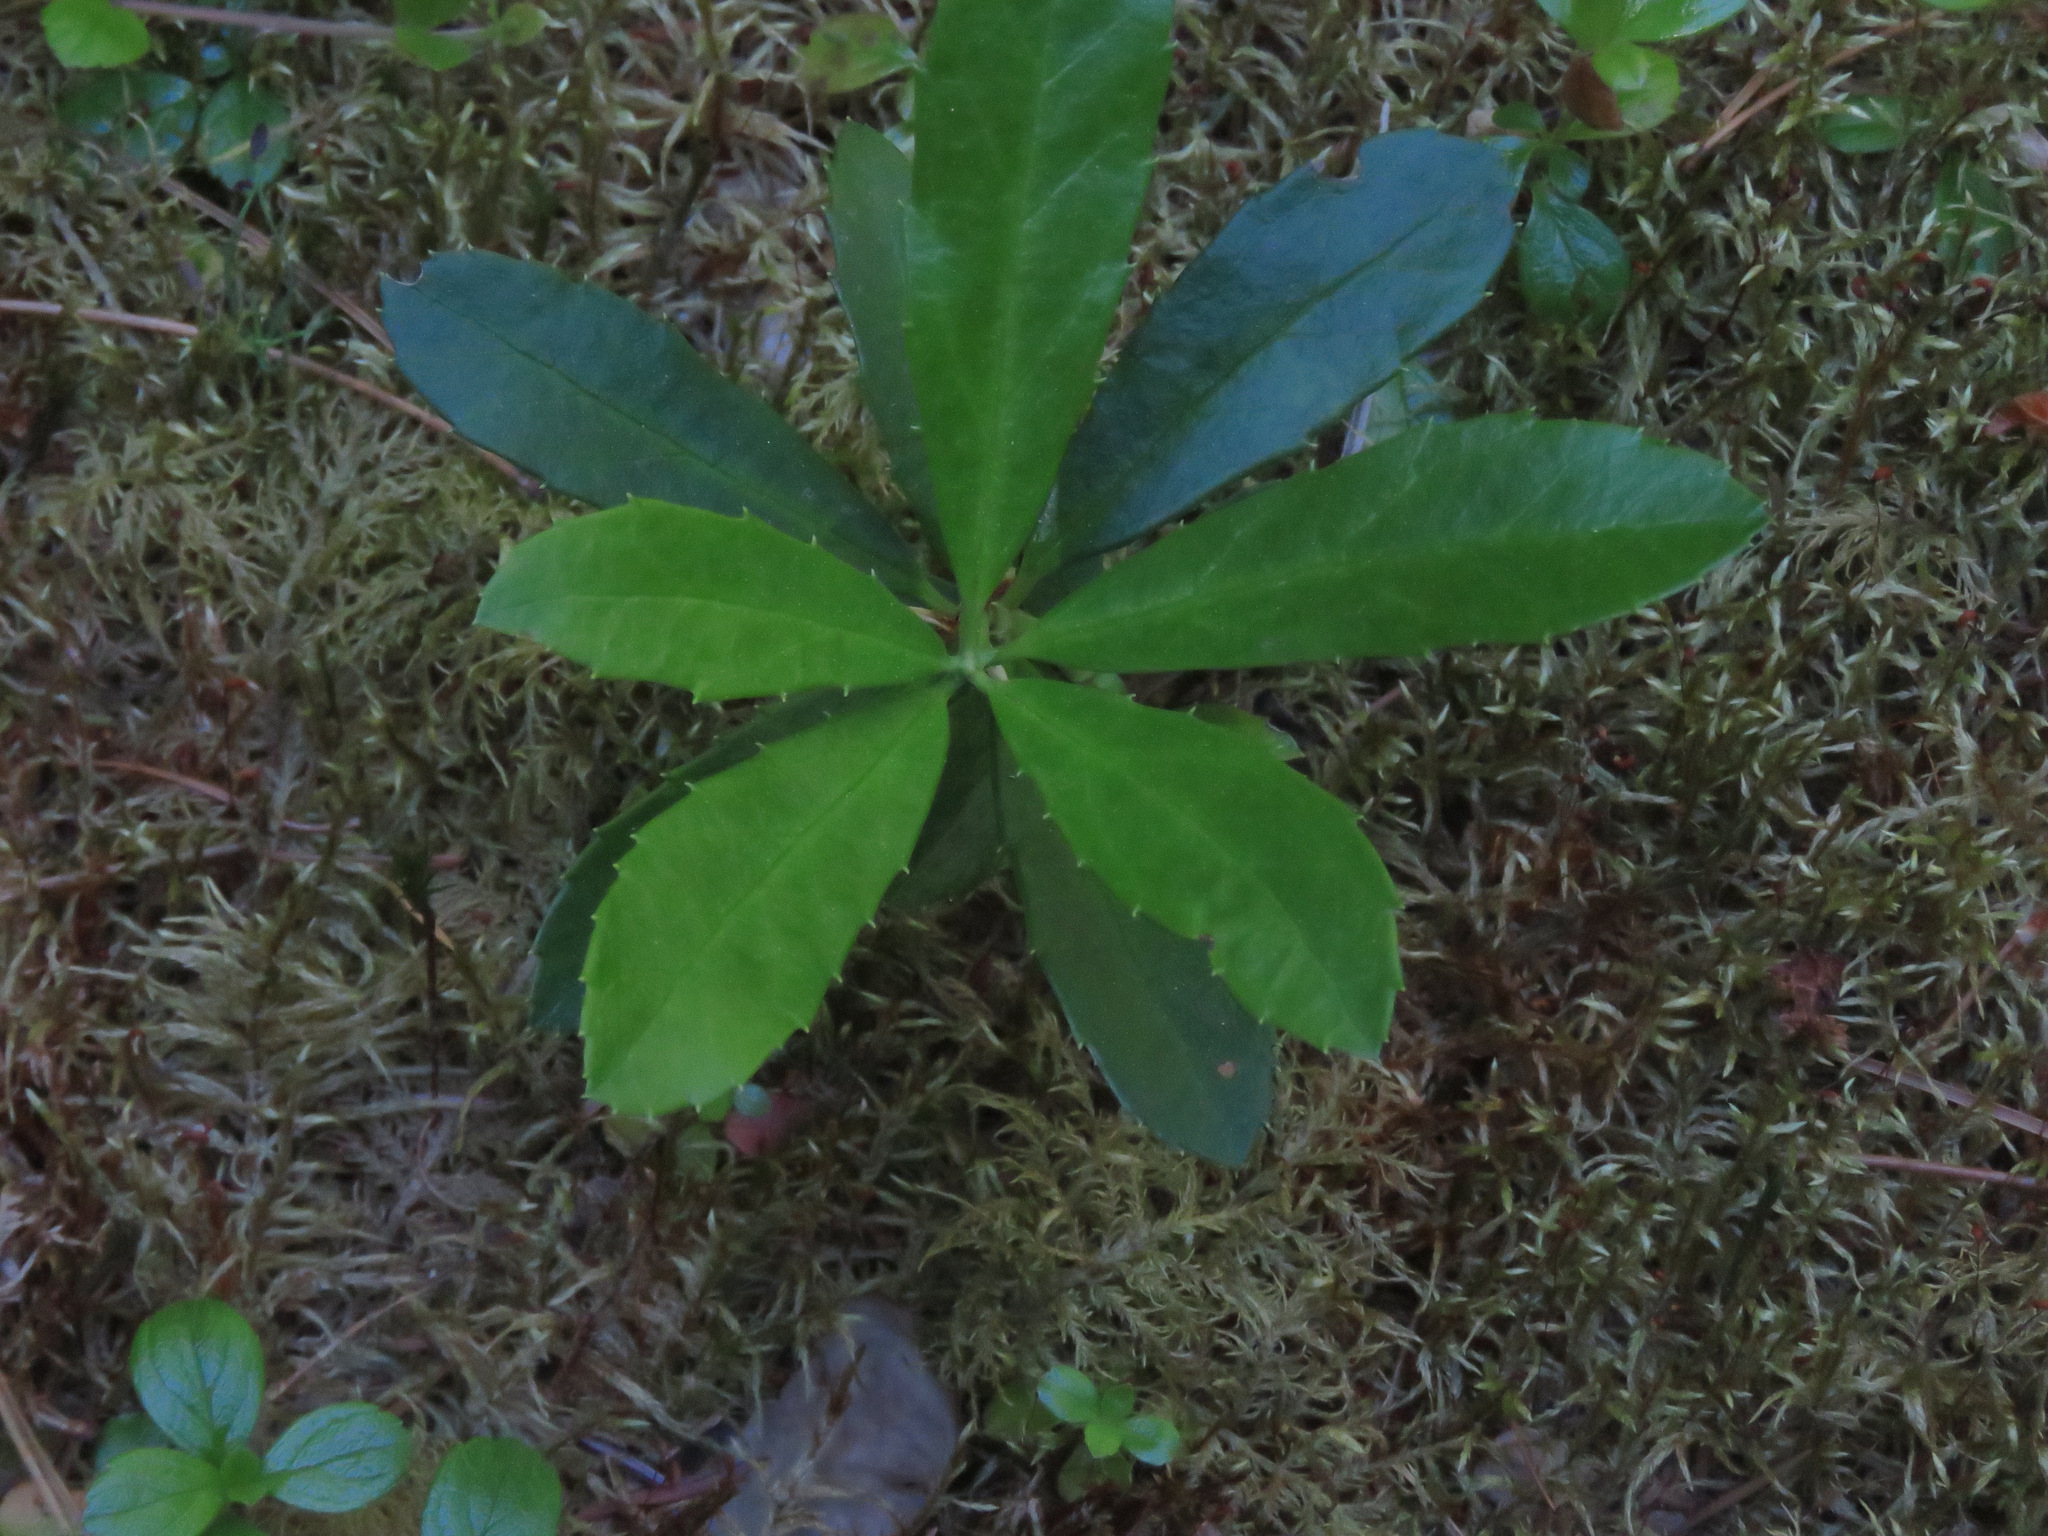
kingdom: Plantae
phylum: Tracheophyta
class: Magnoliopsida
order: Ericales
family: Ericaceae
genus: Chimaphila
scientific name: Chimaphila umbellata
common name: Pipsissewa
